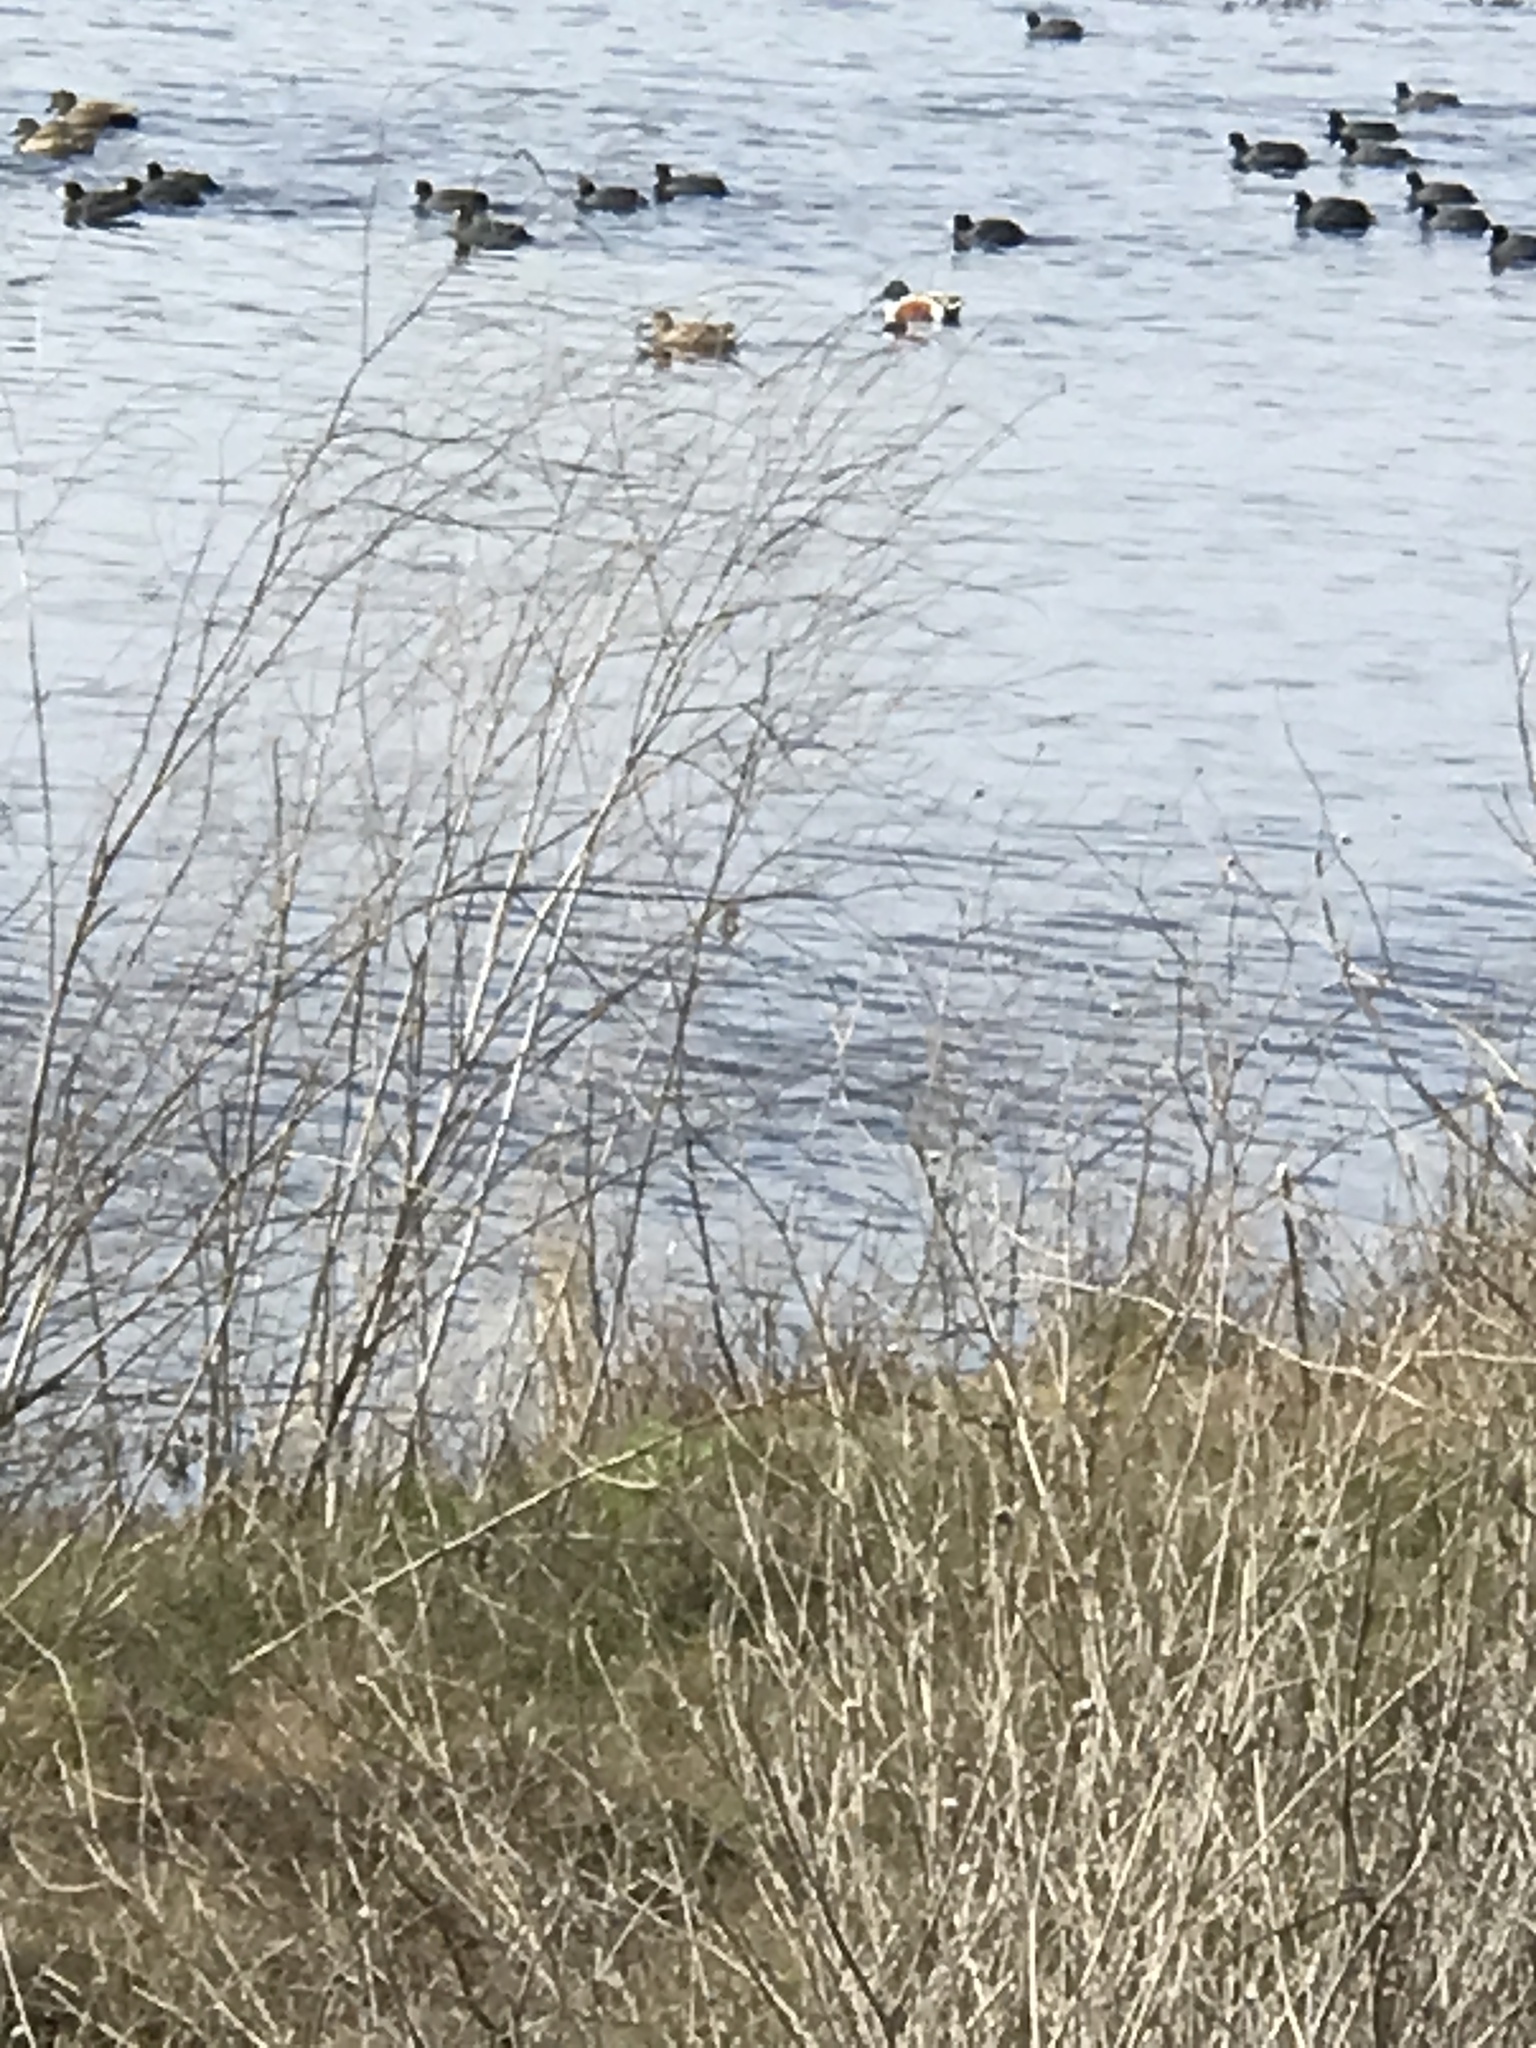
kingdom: Animalia
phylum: Chordata
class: Aves
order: Anseriformes
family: Anatidae
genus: Spatula
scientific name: Spatula clypeata
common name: Northern shoveler
